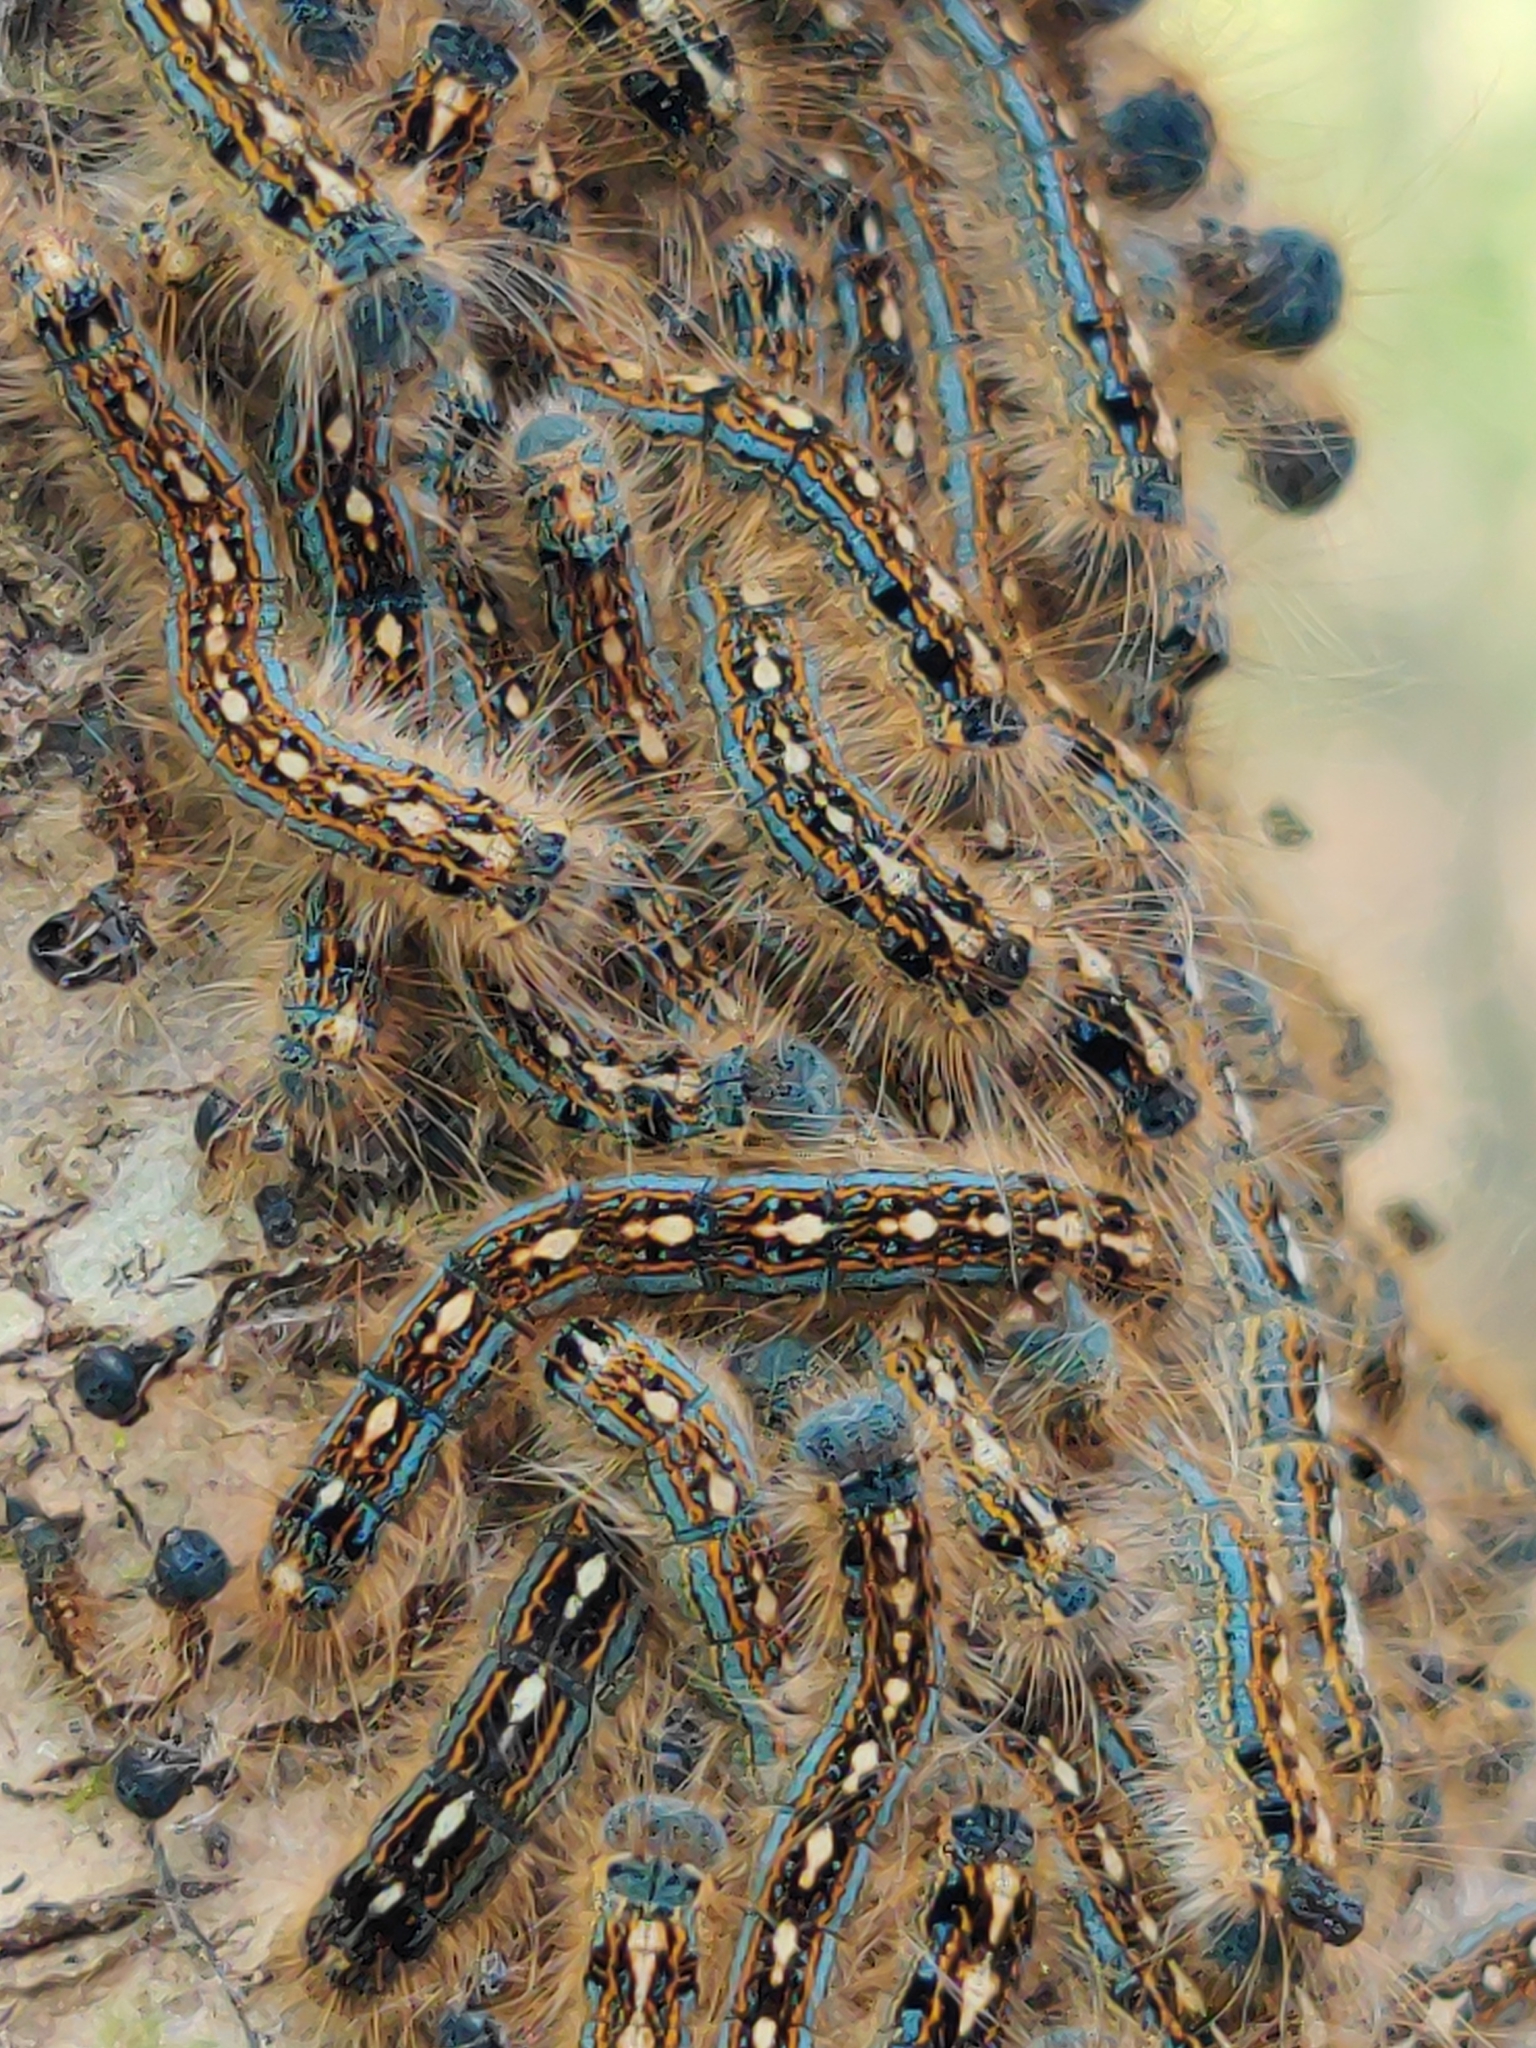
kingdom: Animalia
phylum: Arthropoda
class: Insecta
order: Lepidoptera
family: Lasiocampidae
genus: Malacosoma
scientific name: Malacosoma disstria
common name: Forest tent caterpillar
